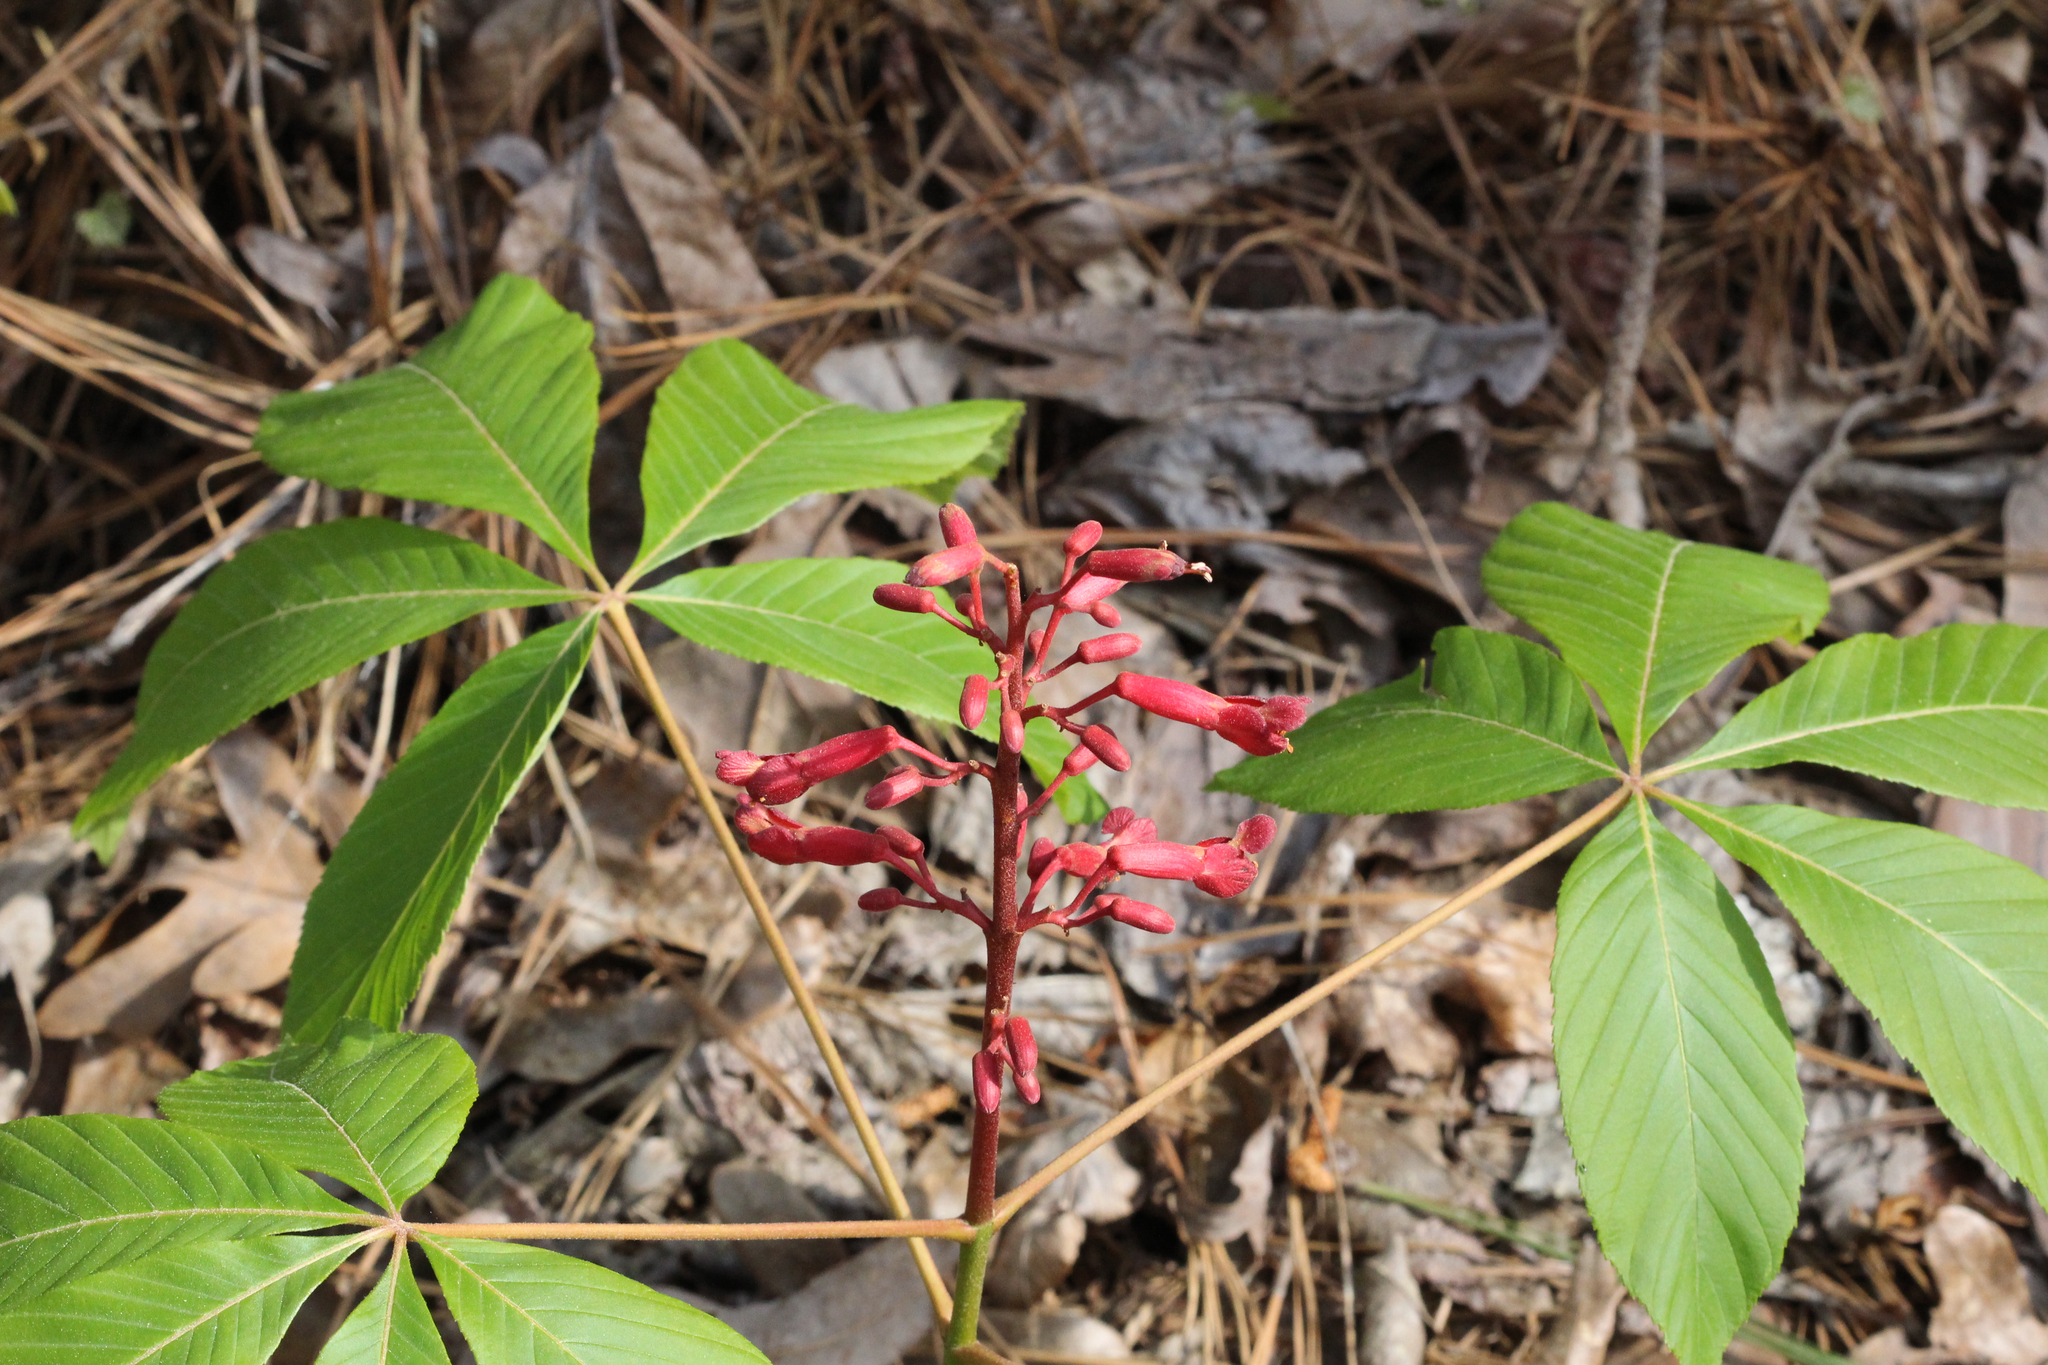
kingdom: Plantae
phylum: Tracheophyta
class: Magnoliopsida
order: Sapindales
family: Sapindaceae
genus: Aesculus
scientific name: Aesculus pavia
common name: Red buckeye
